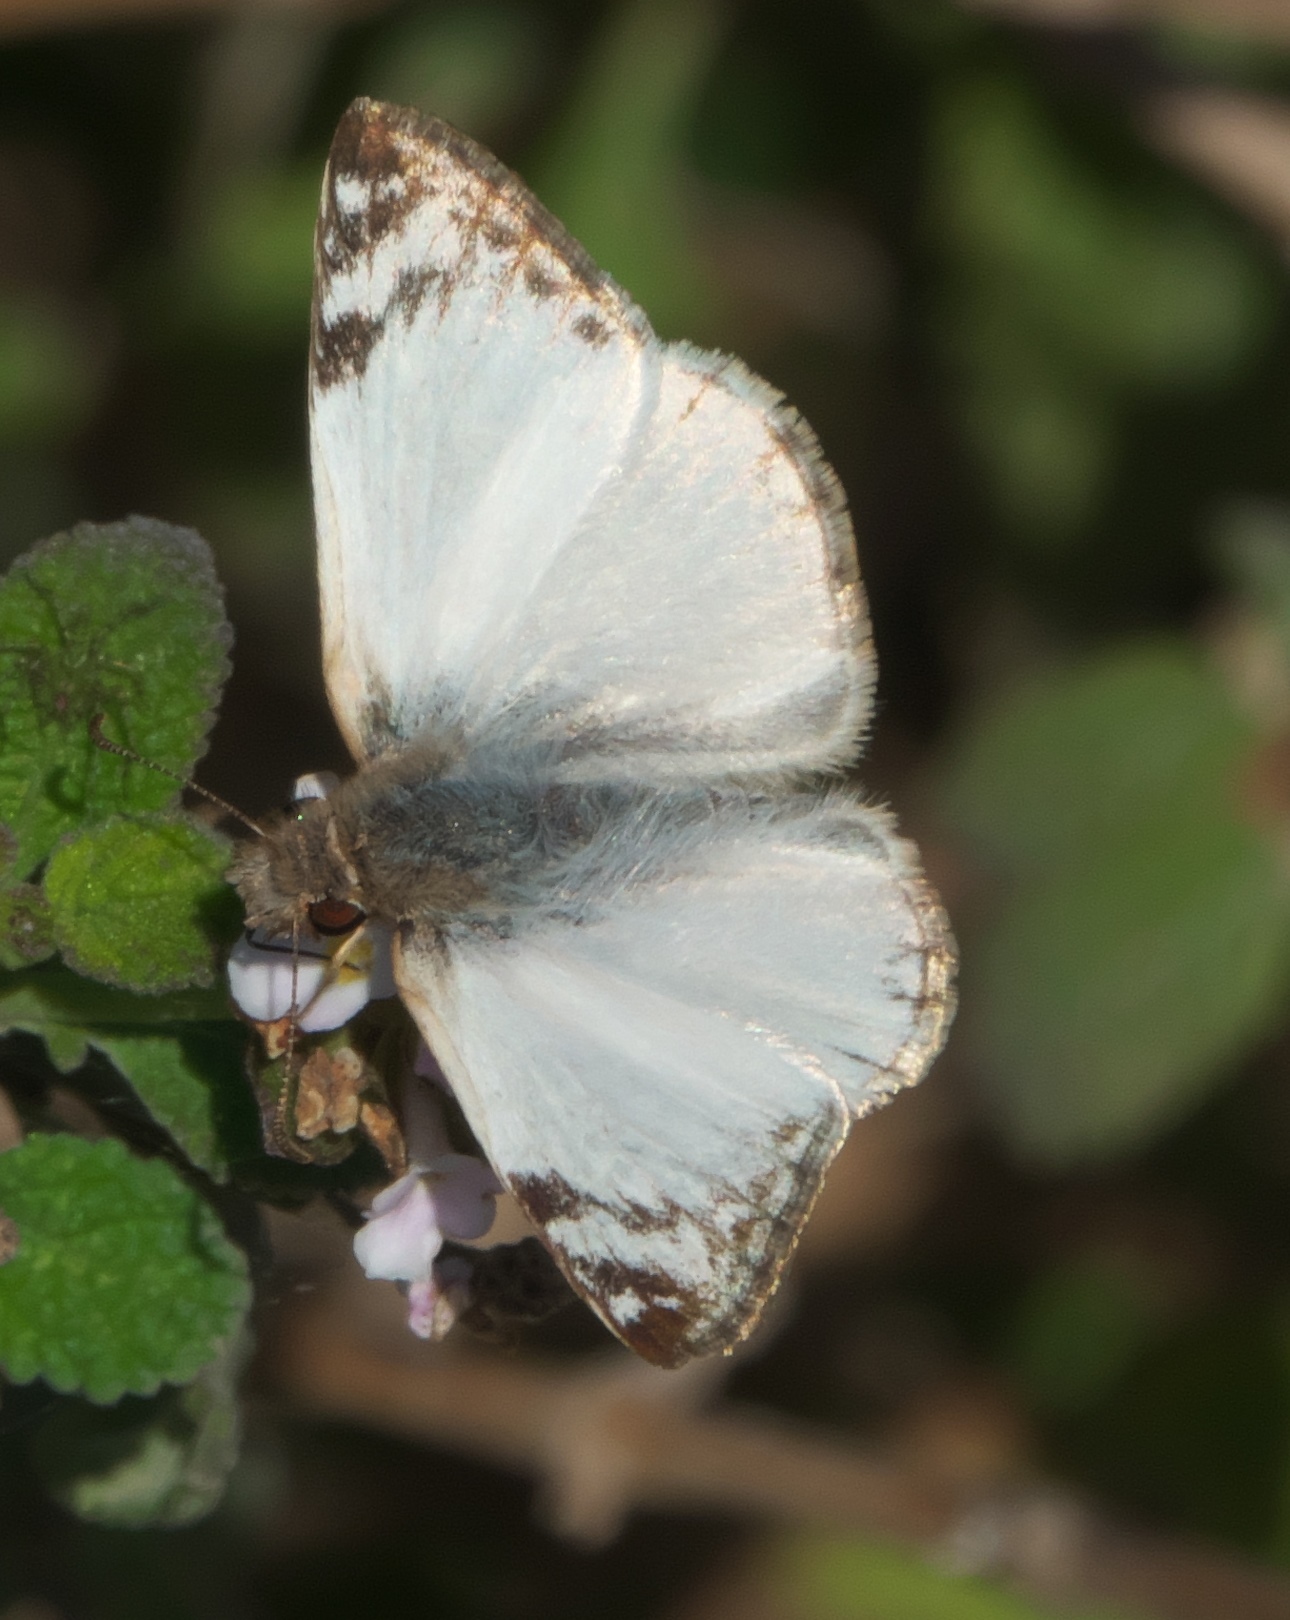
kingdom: Animalia
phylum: Arthropoda
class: Insecta
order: Lepidoptera
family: Hesperiidae
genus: Heliopetes
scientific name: Heliopetes laviana
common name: Laviana white-skipper
